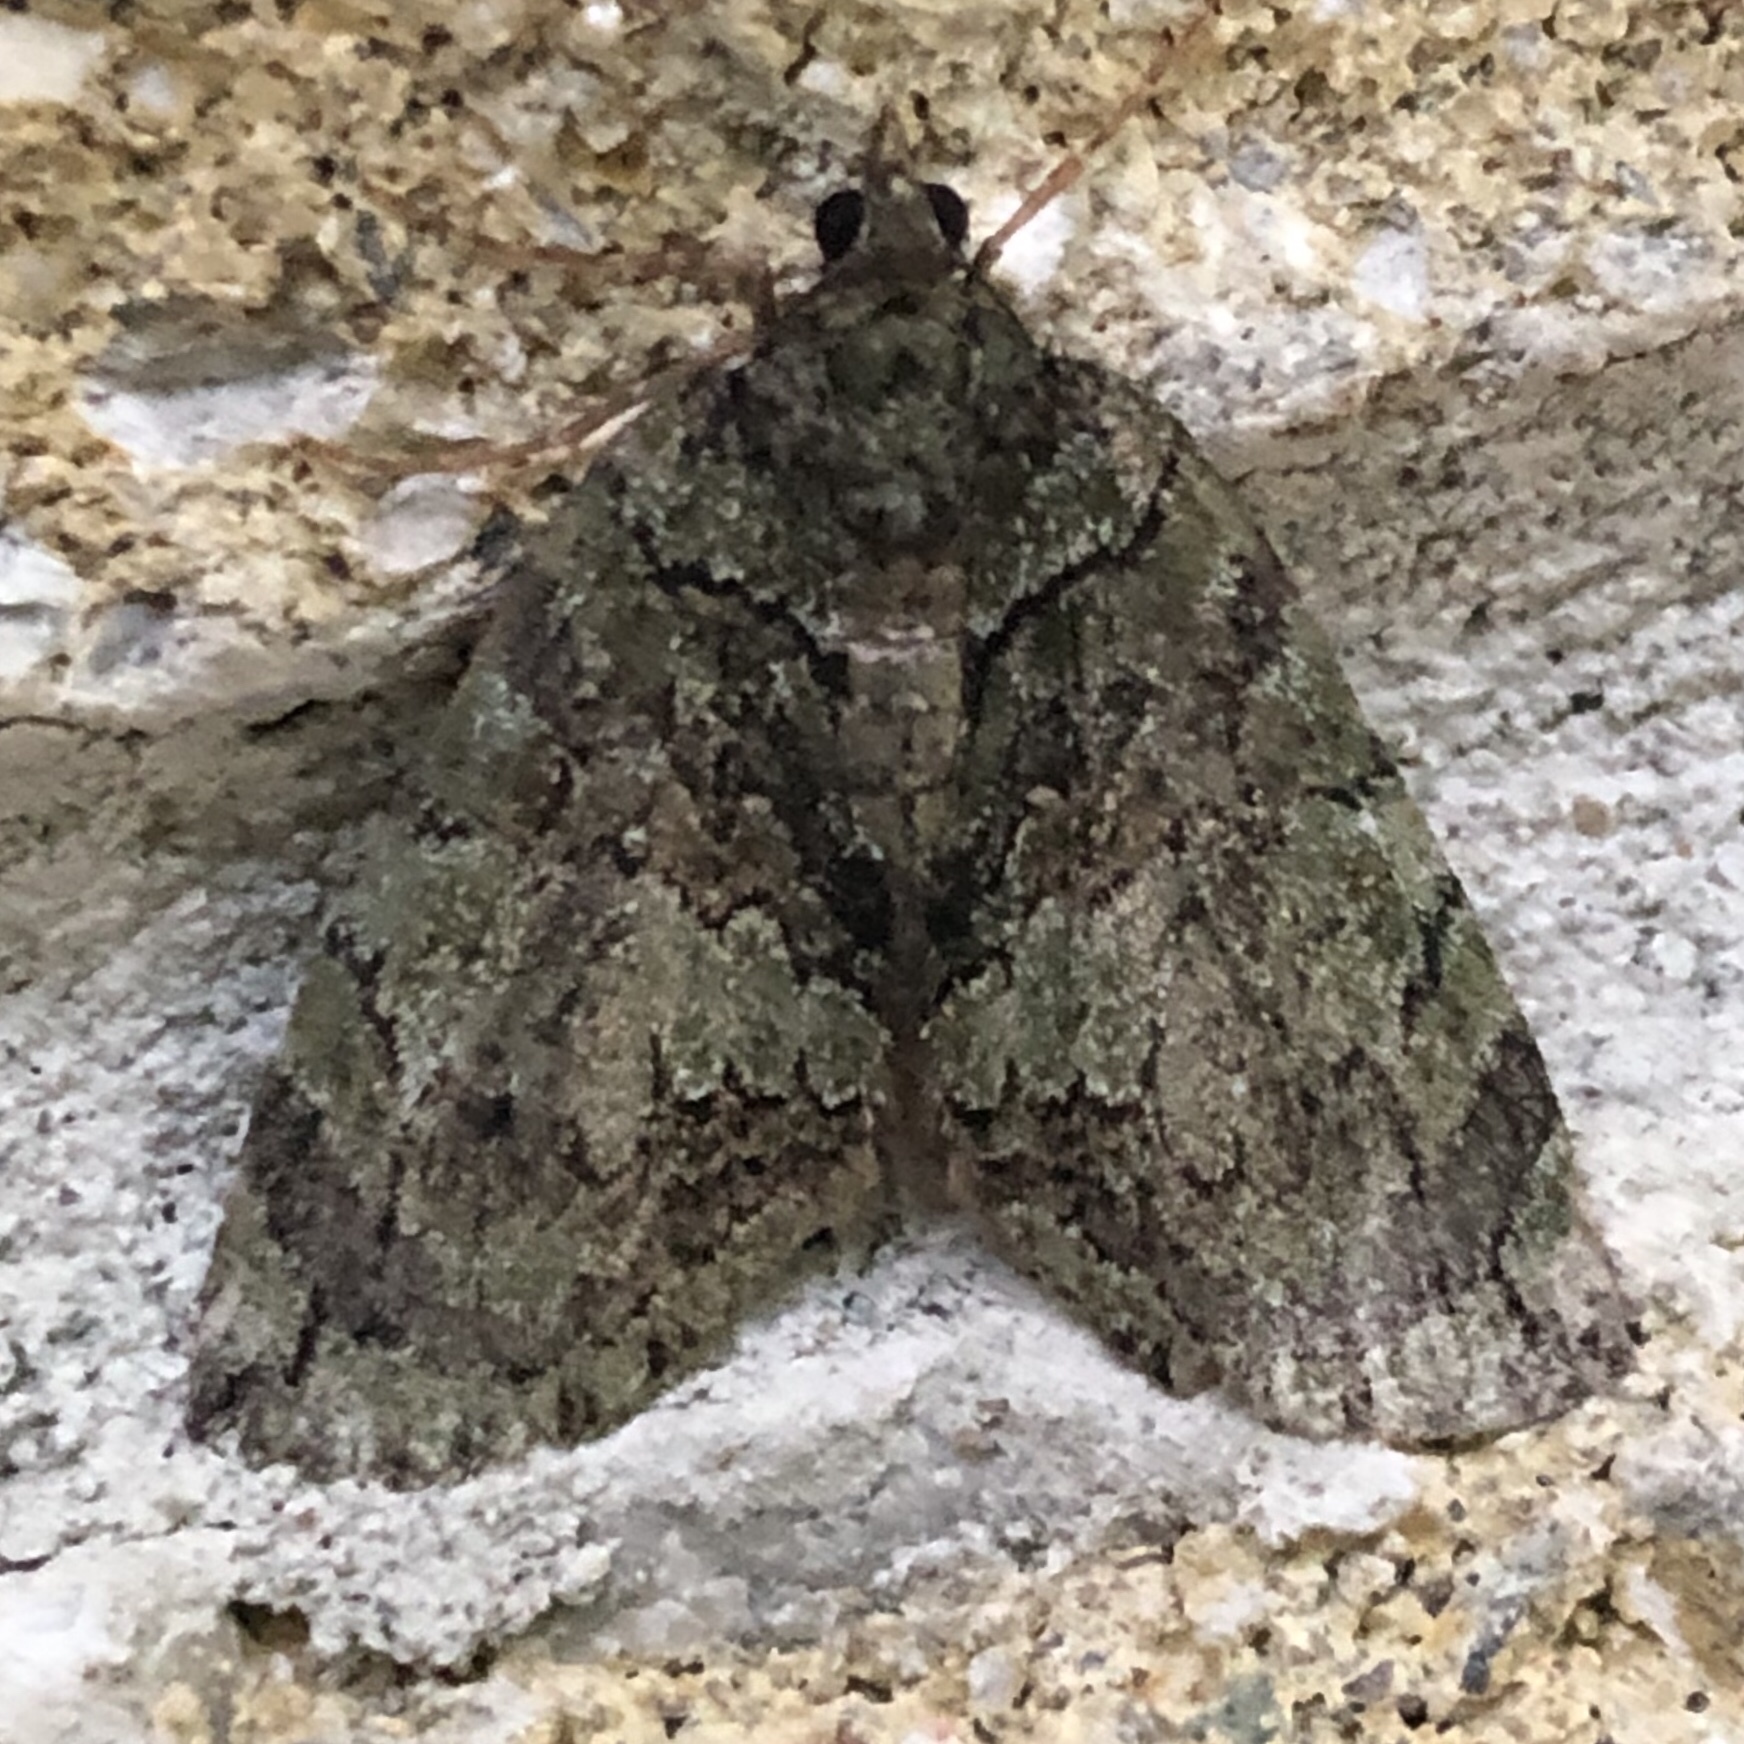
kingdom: Animalia
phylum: Arthropoda
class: Insecta
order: Lepidoptera
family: Geometridae
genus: Hydriomena
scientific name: Hydriomena renunciata
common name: Renounced hydriomena moth
